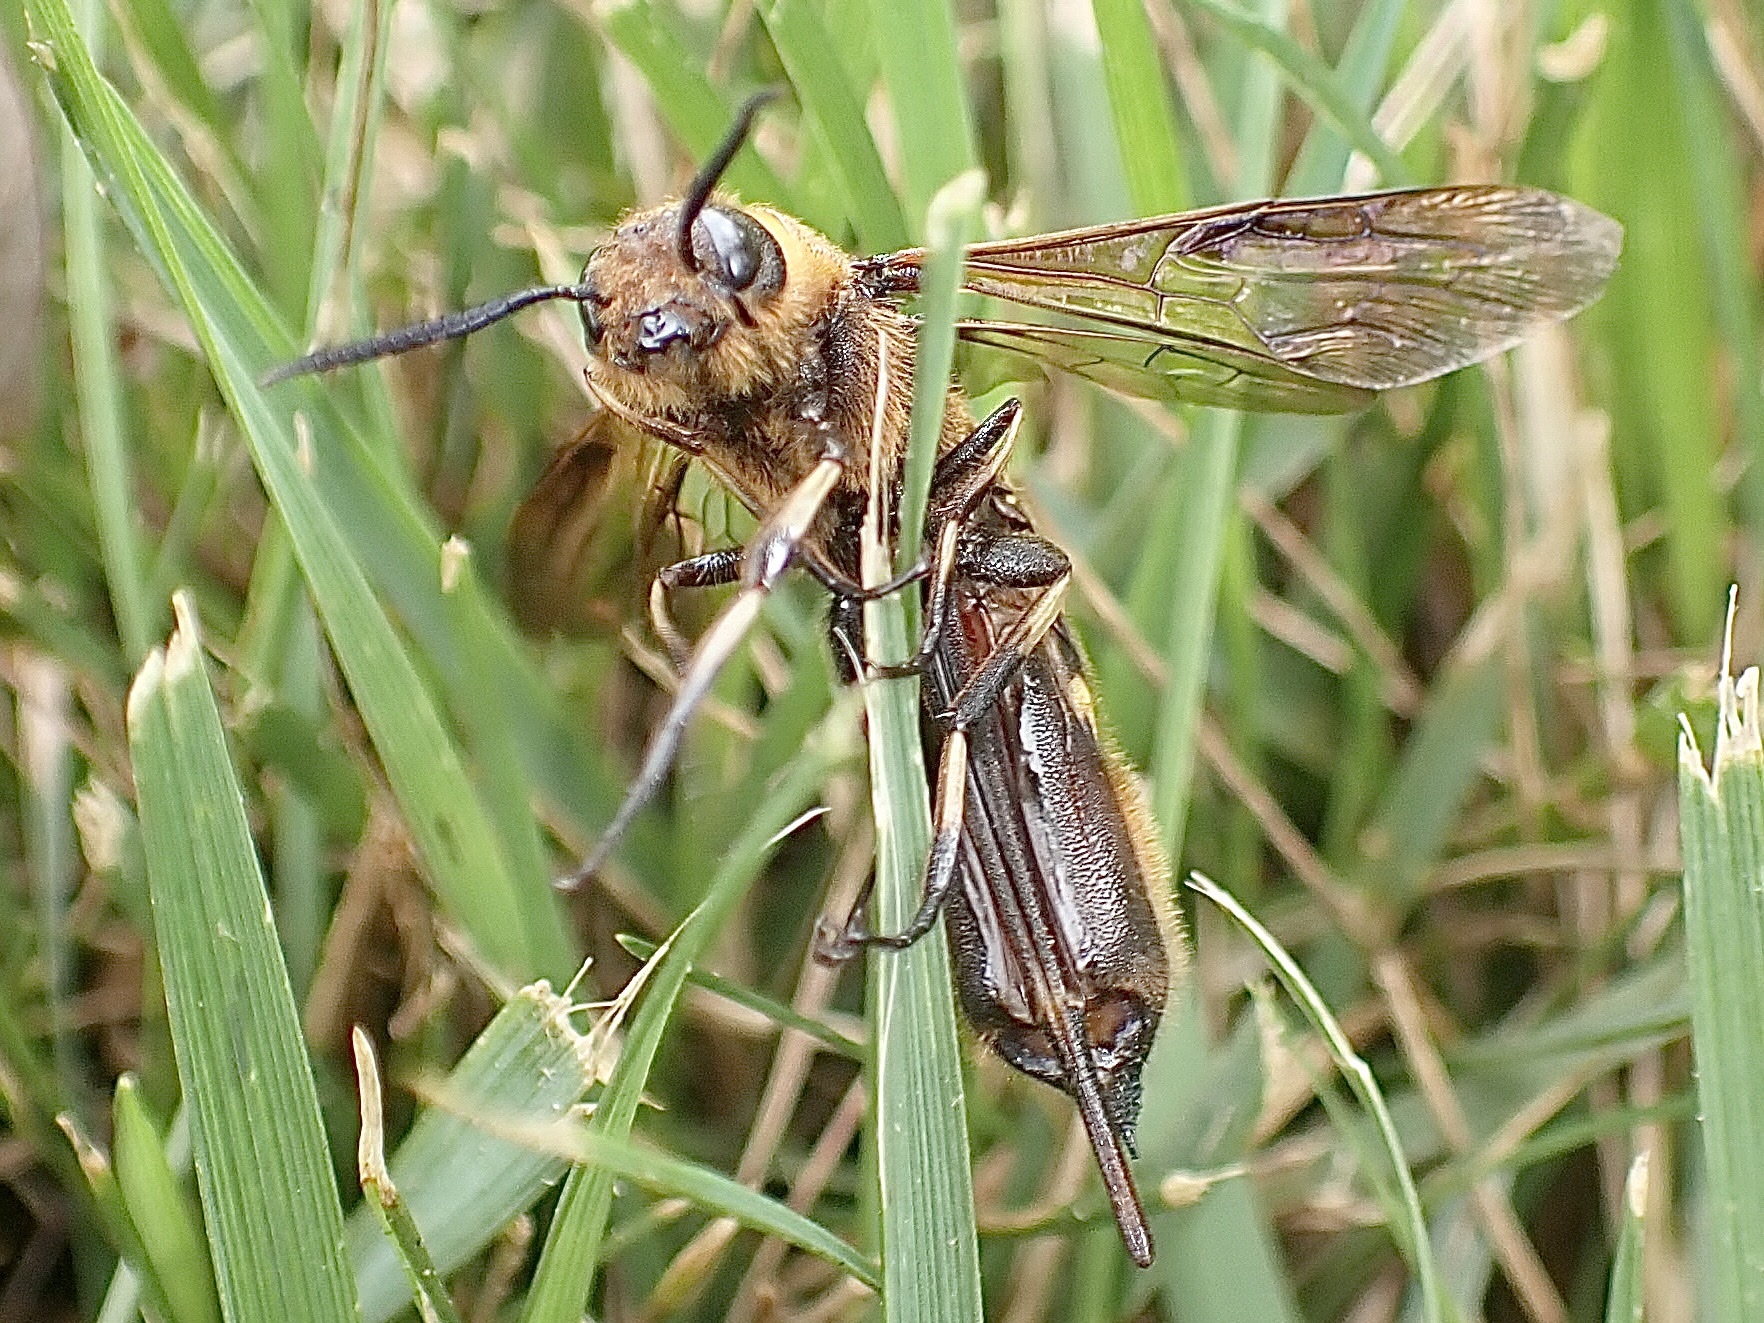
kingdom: Animalia
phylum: Arthropoda
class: Insecta
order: Hymenoptera
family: Siricidae
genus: Eriotremex
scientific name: Eriotremex formosanus
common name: Asian horntail
